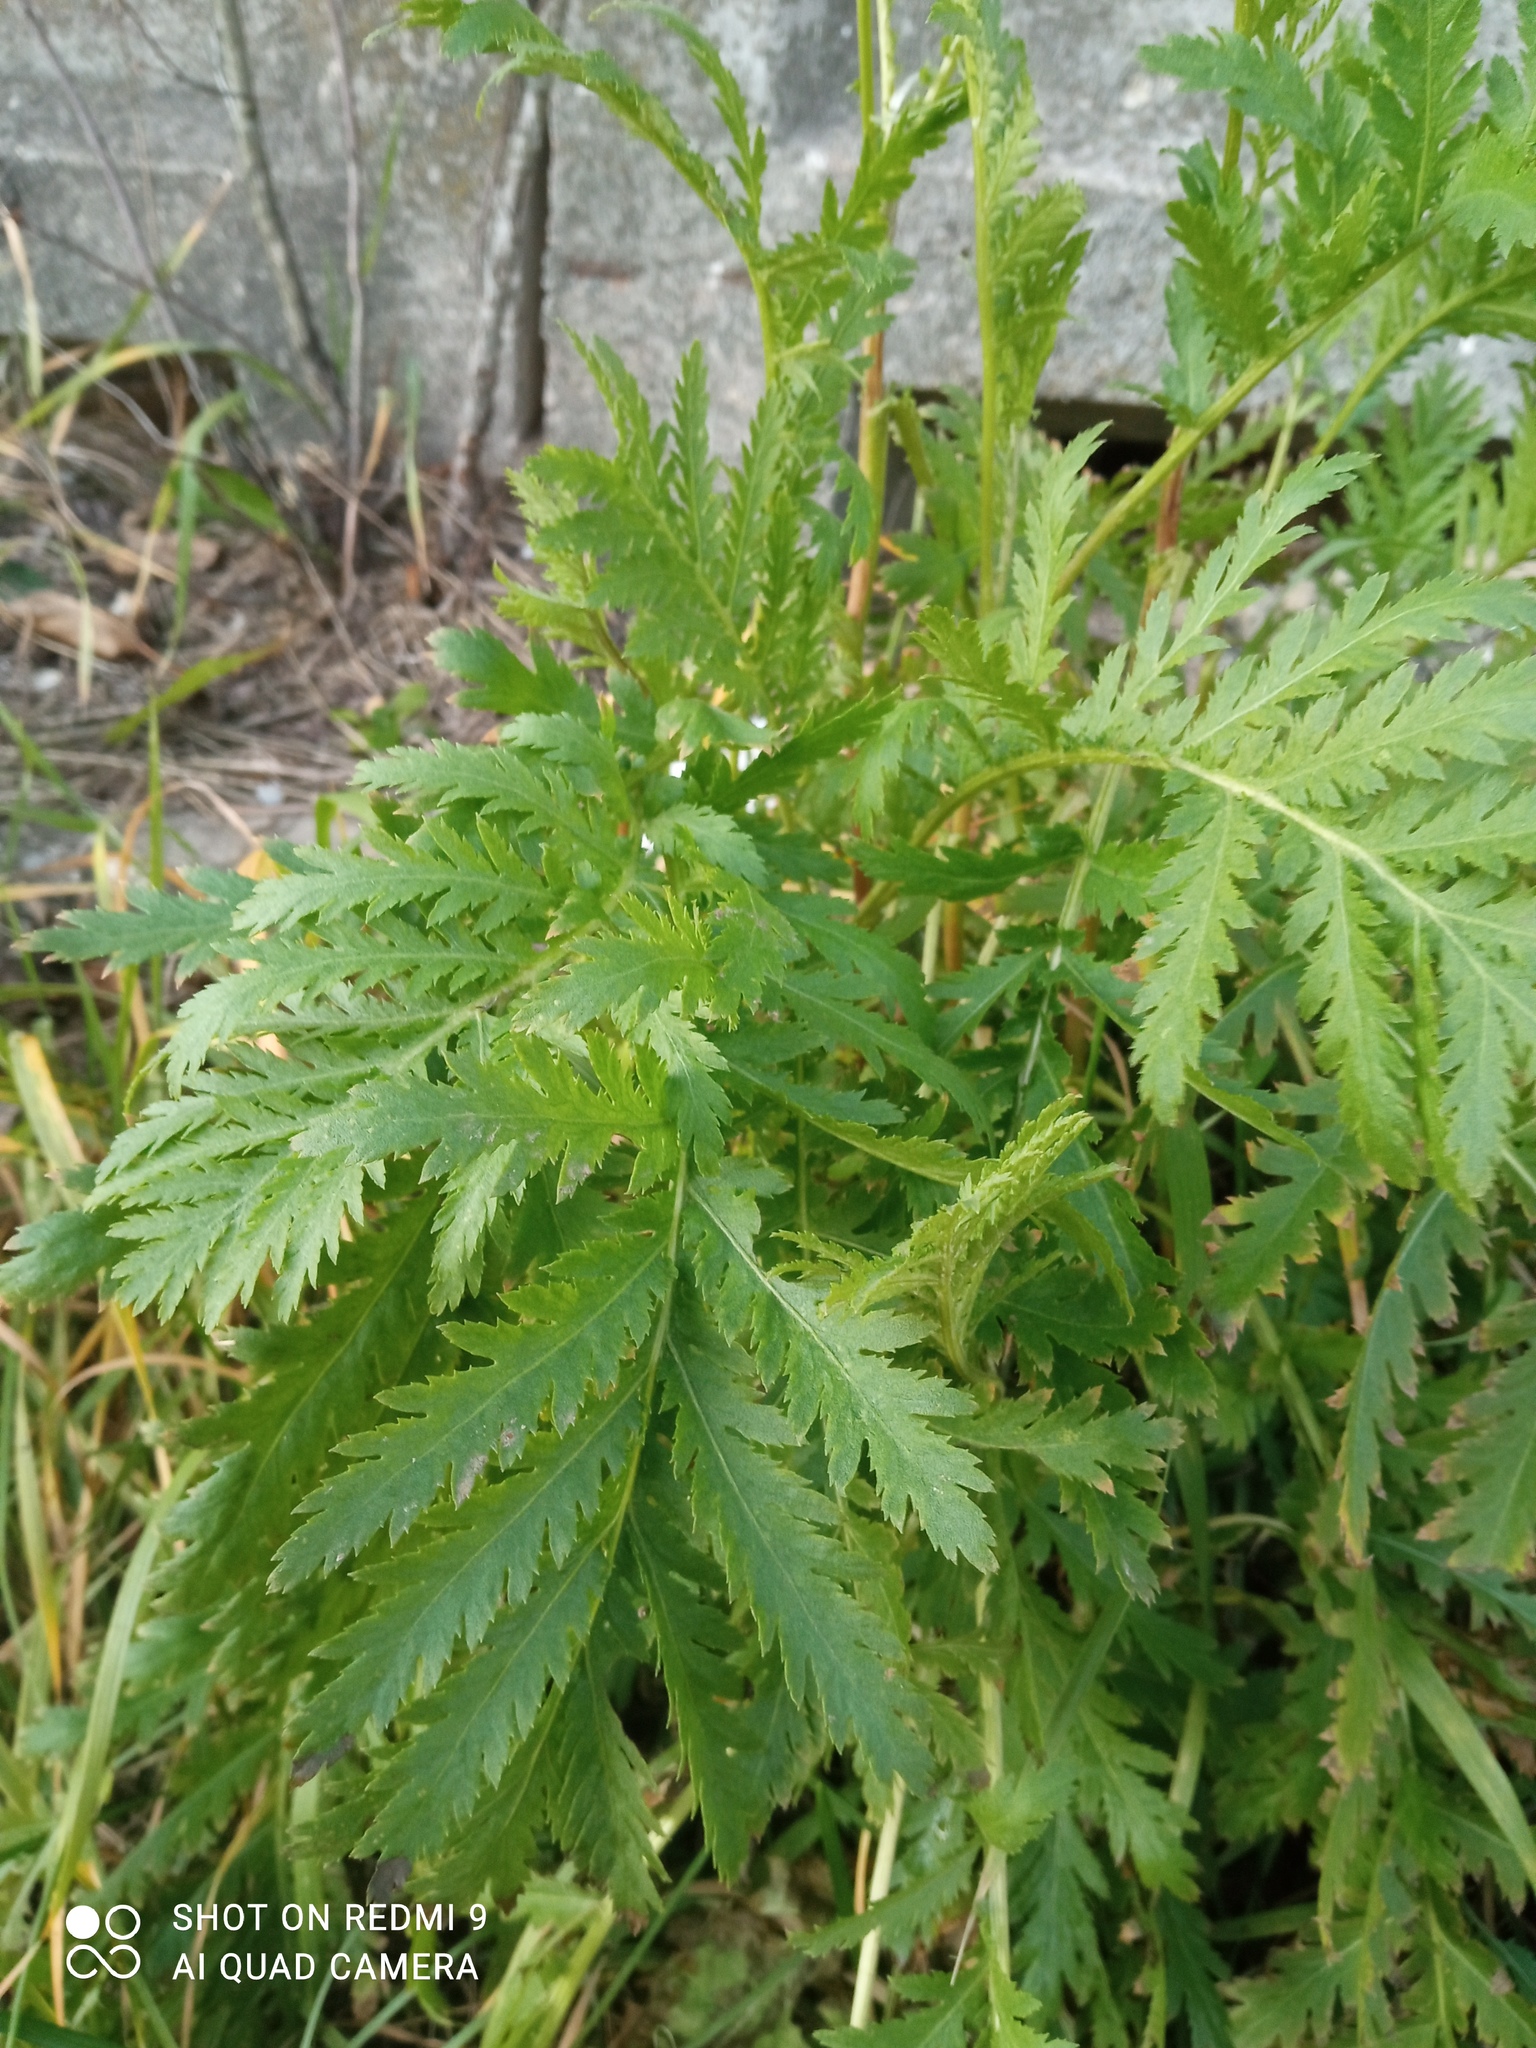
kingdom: Plantae
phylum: Tracheophyta
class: Magnoliopsida
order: Asterales
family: Asteraceae
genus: Tanacetum
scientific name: Tanacetum vulgare
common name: Common tansy
